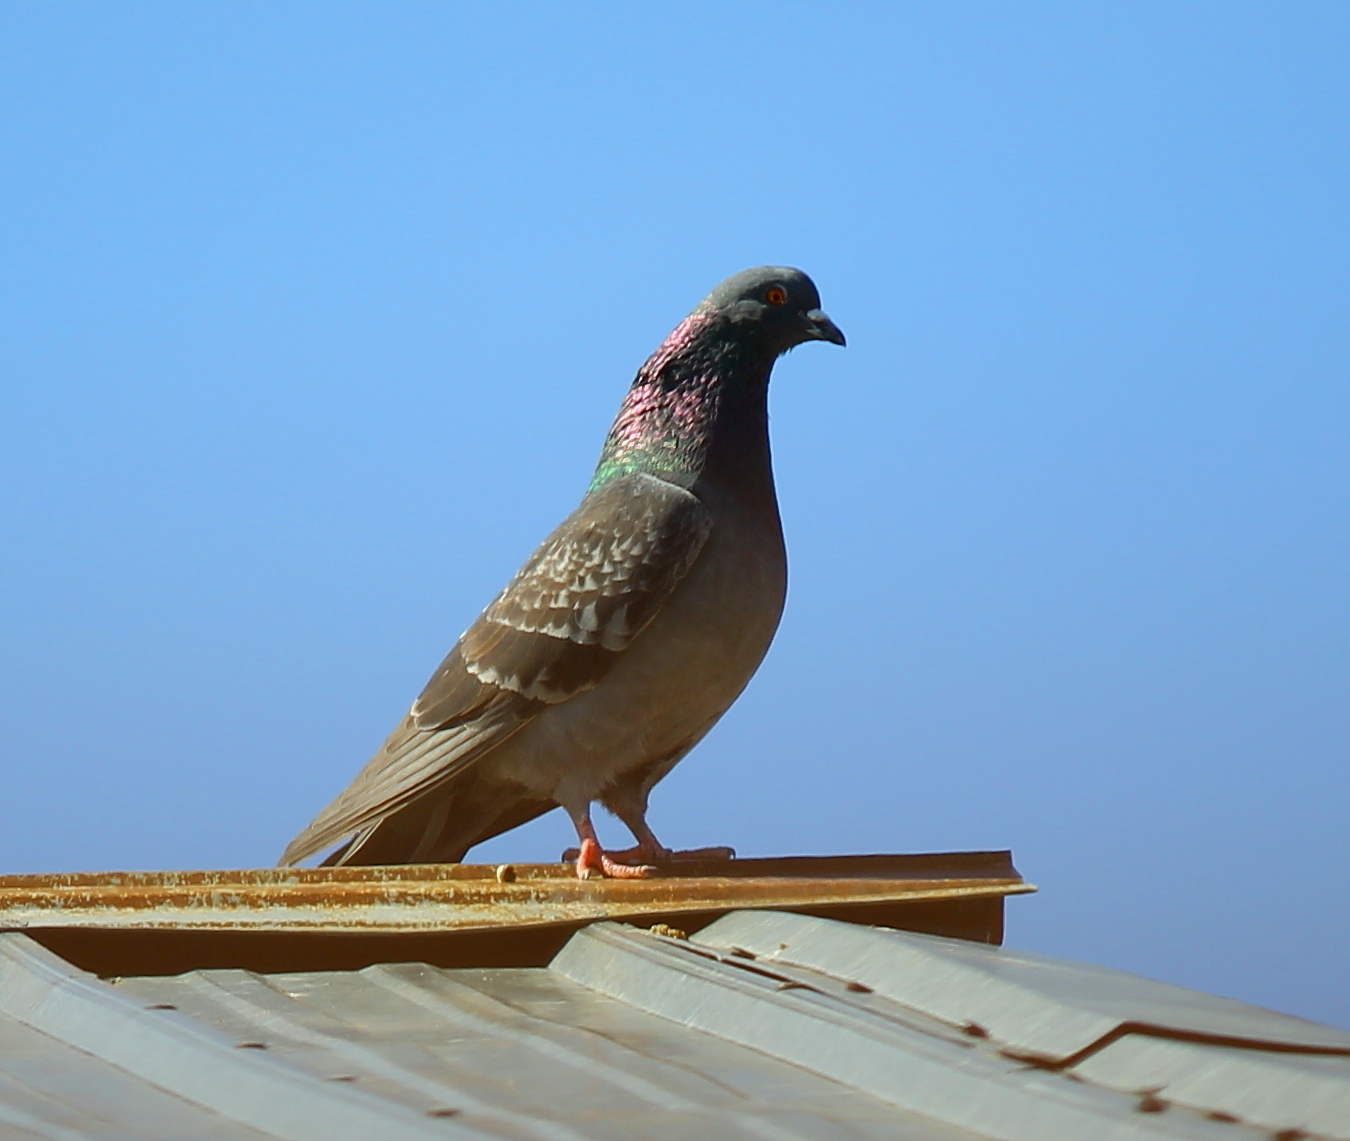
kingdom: Animalia
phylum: Chordata
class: Aves
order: Columbiformes
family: Columbidae
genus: Columba
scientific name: Columba livia
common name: Rock pigeon
